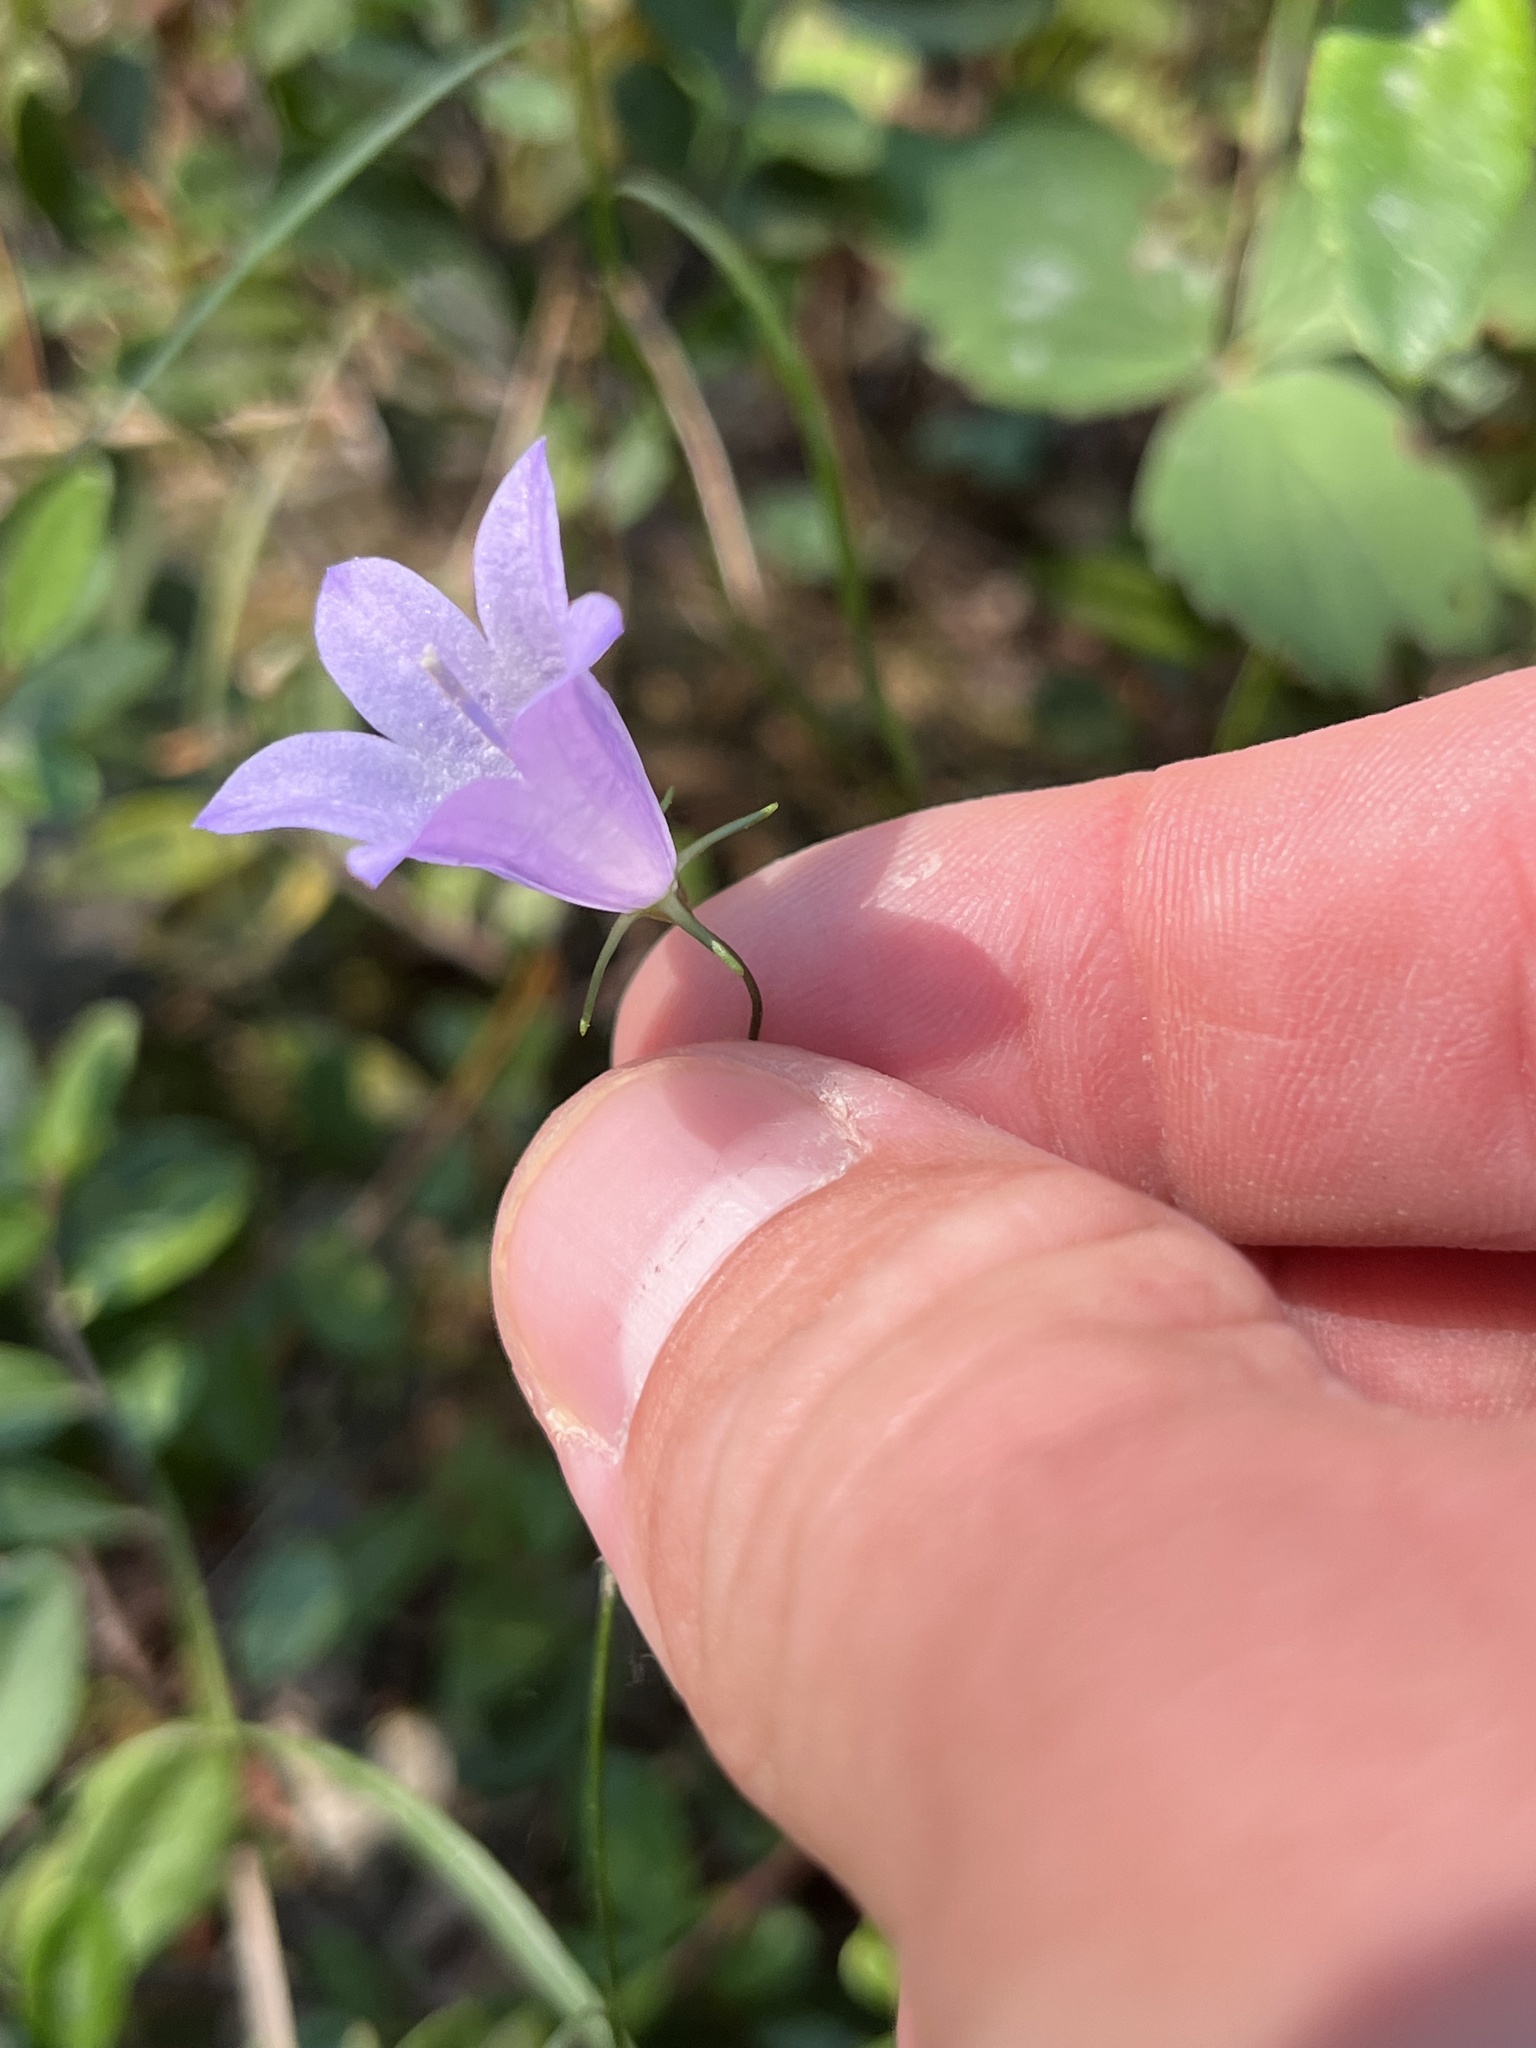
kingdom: Plantae
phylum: Tracheophyta
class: Magnoliopsida
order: Asterales
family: Campanulaceae
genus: Campanula
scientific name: Campanula alaskana
